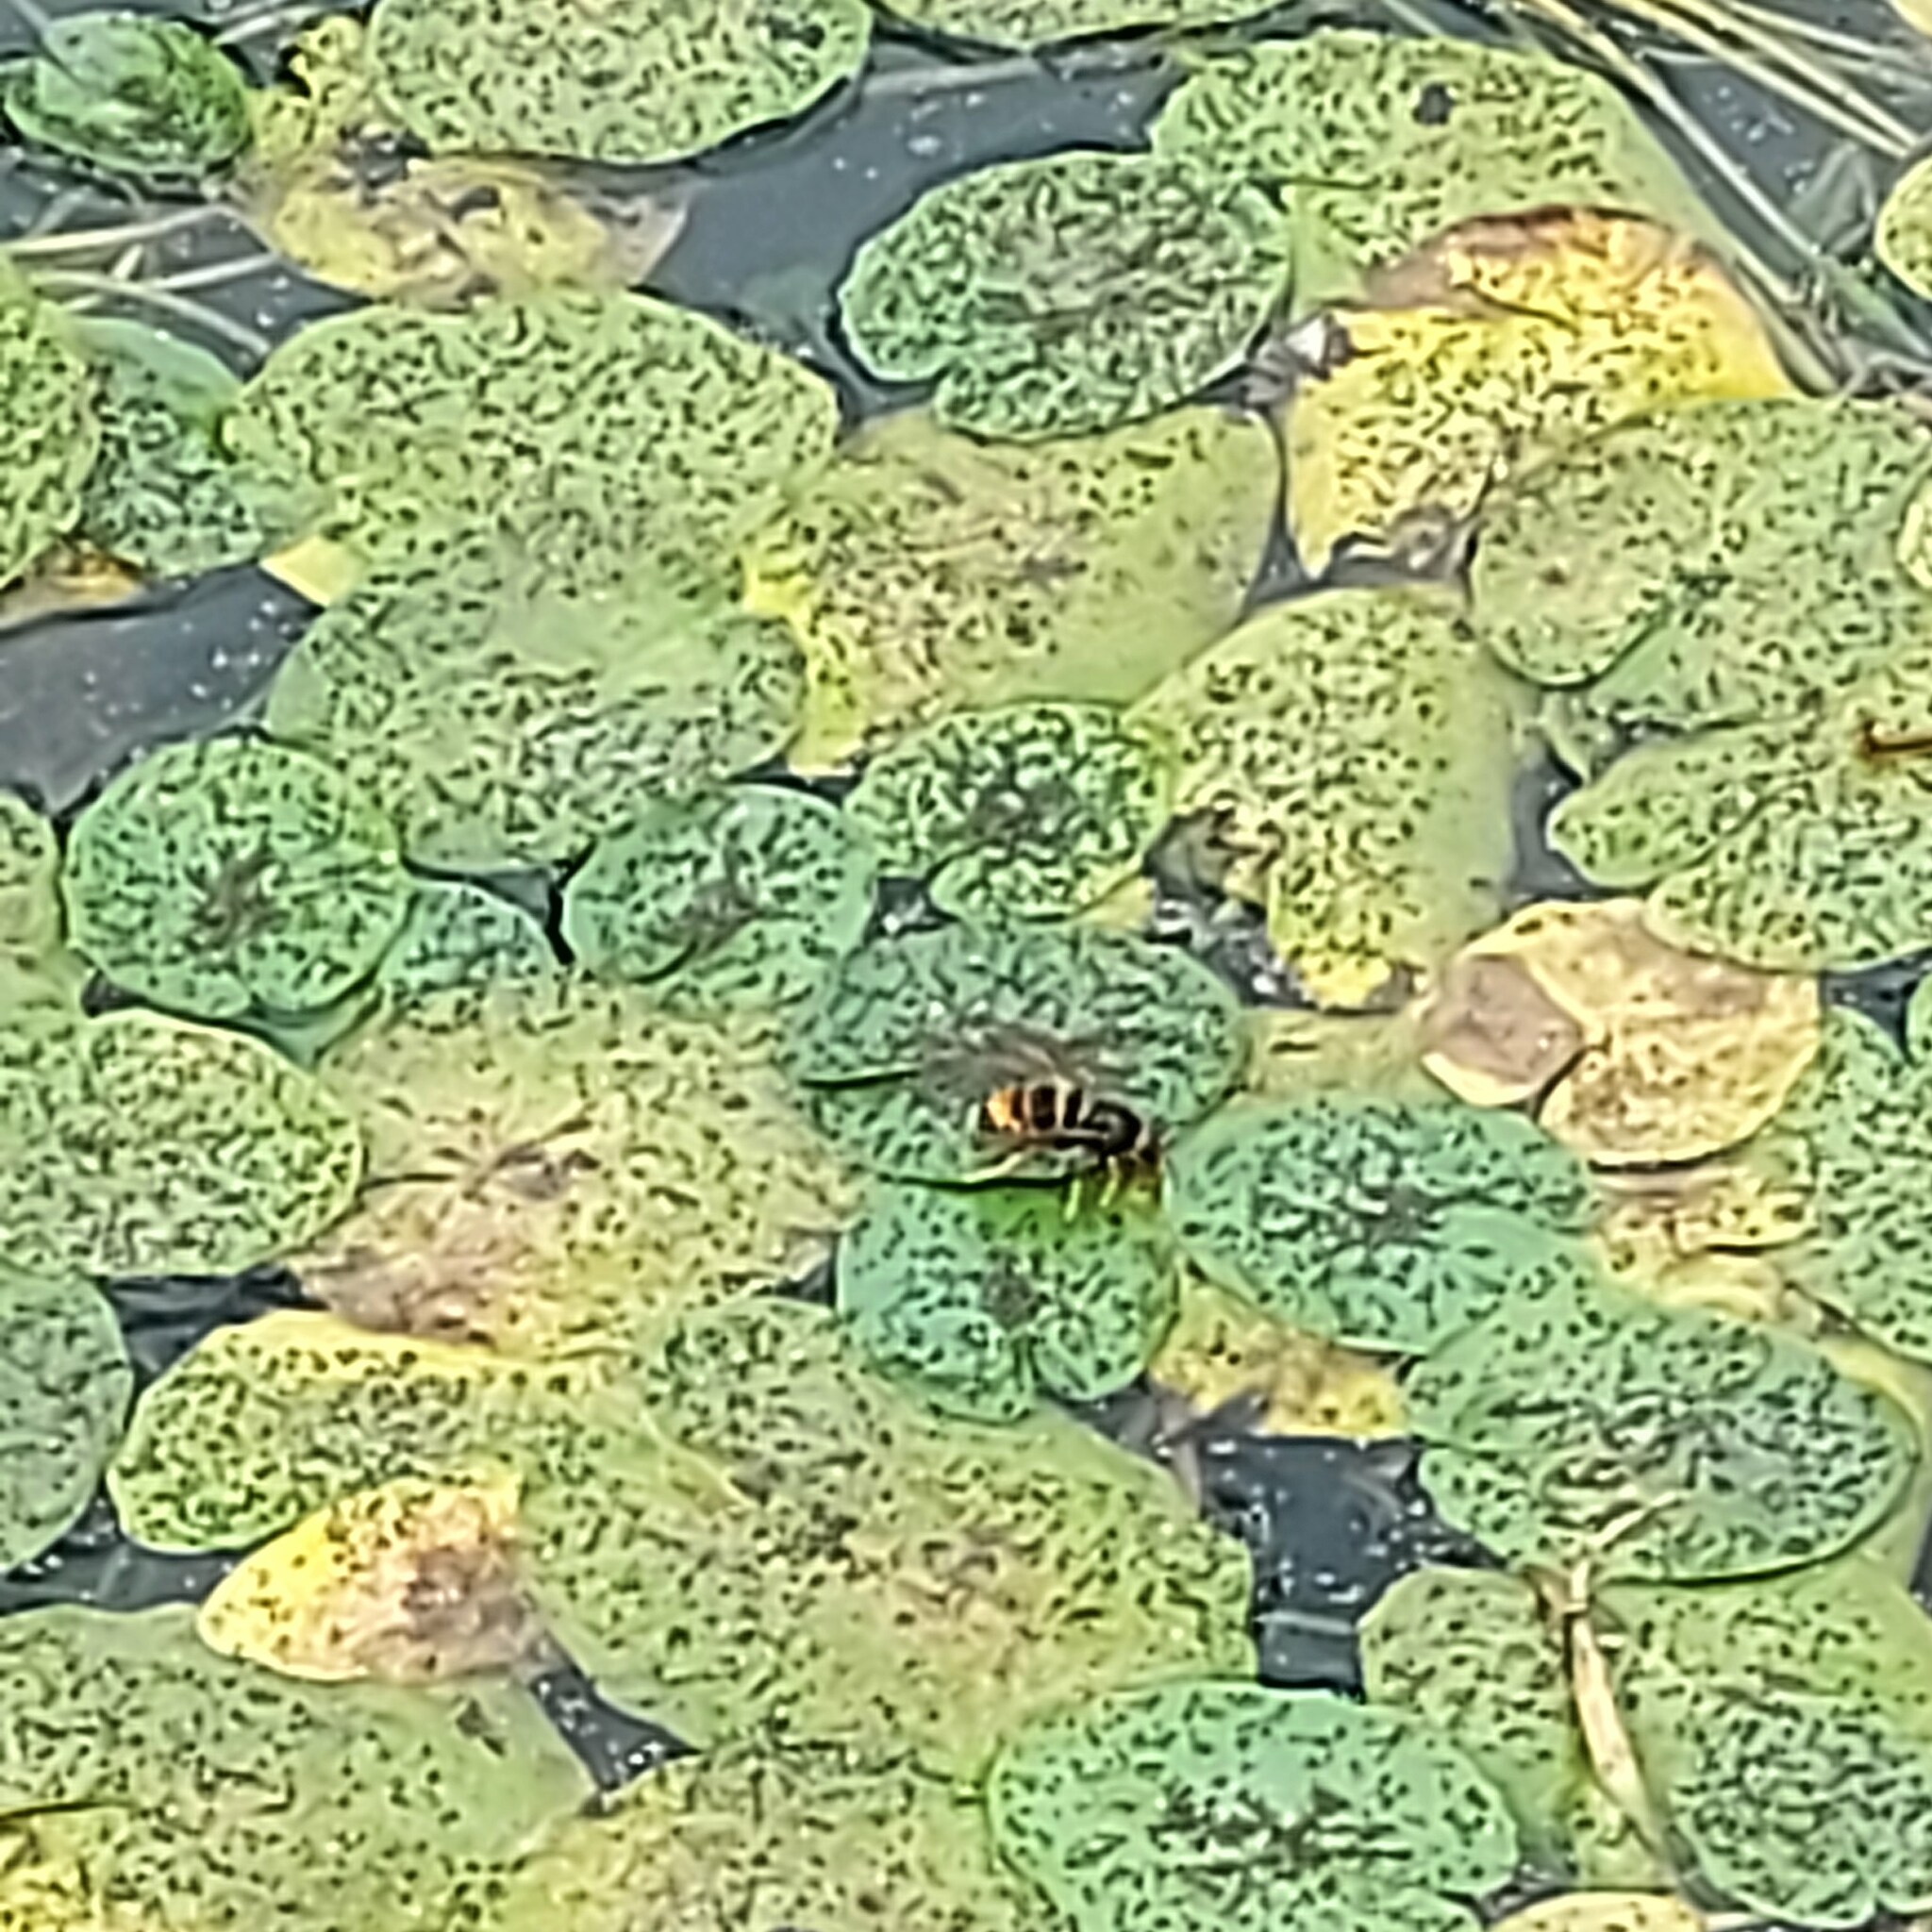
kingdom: Animalia
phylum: Arthropoda
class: Insecta
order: Hymenoptera
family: Vespidae
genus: Vespa
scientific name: Vespa velutina
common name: Asian hornet
